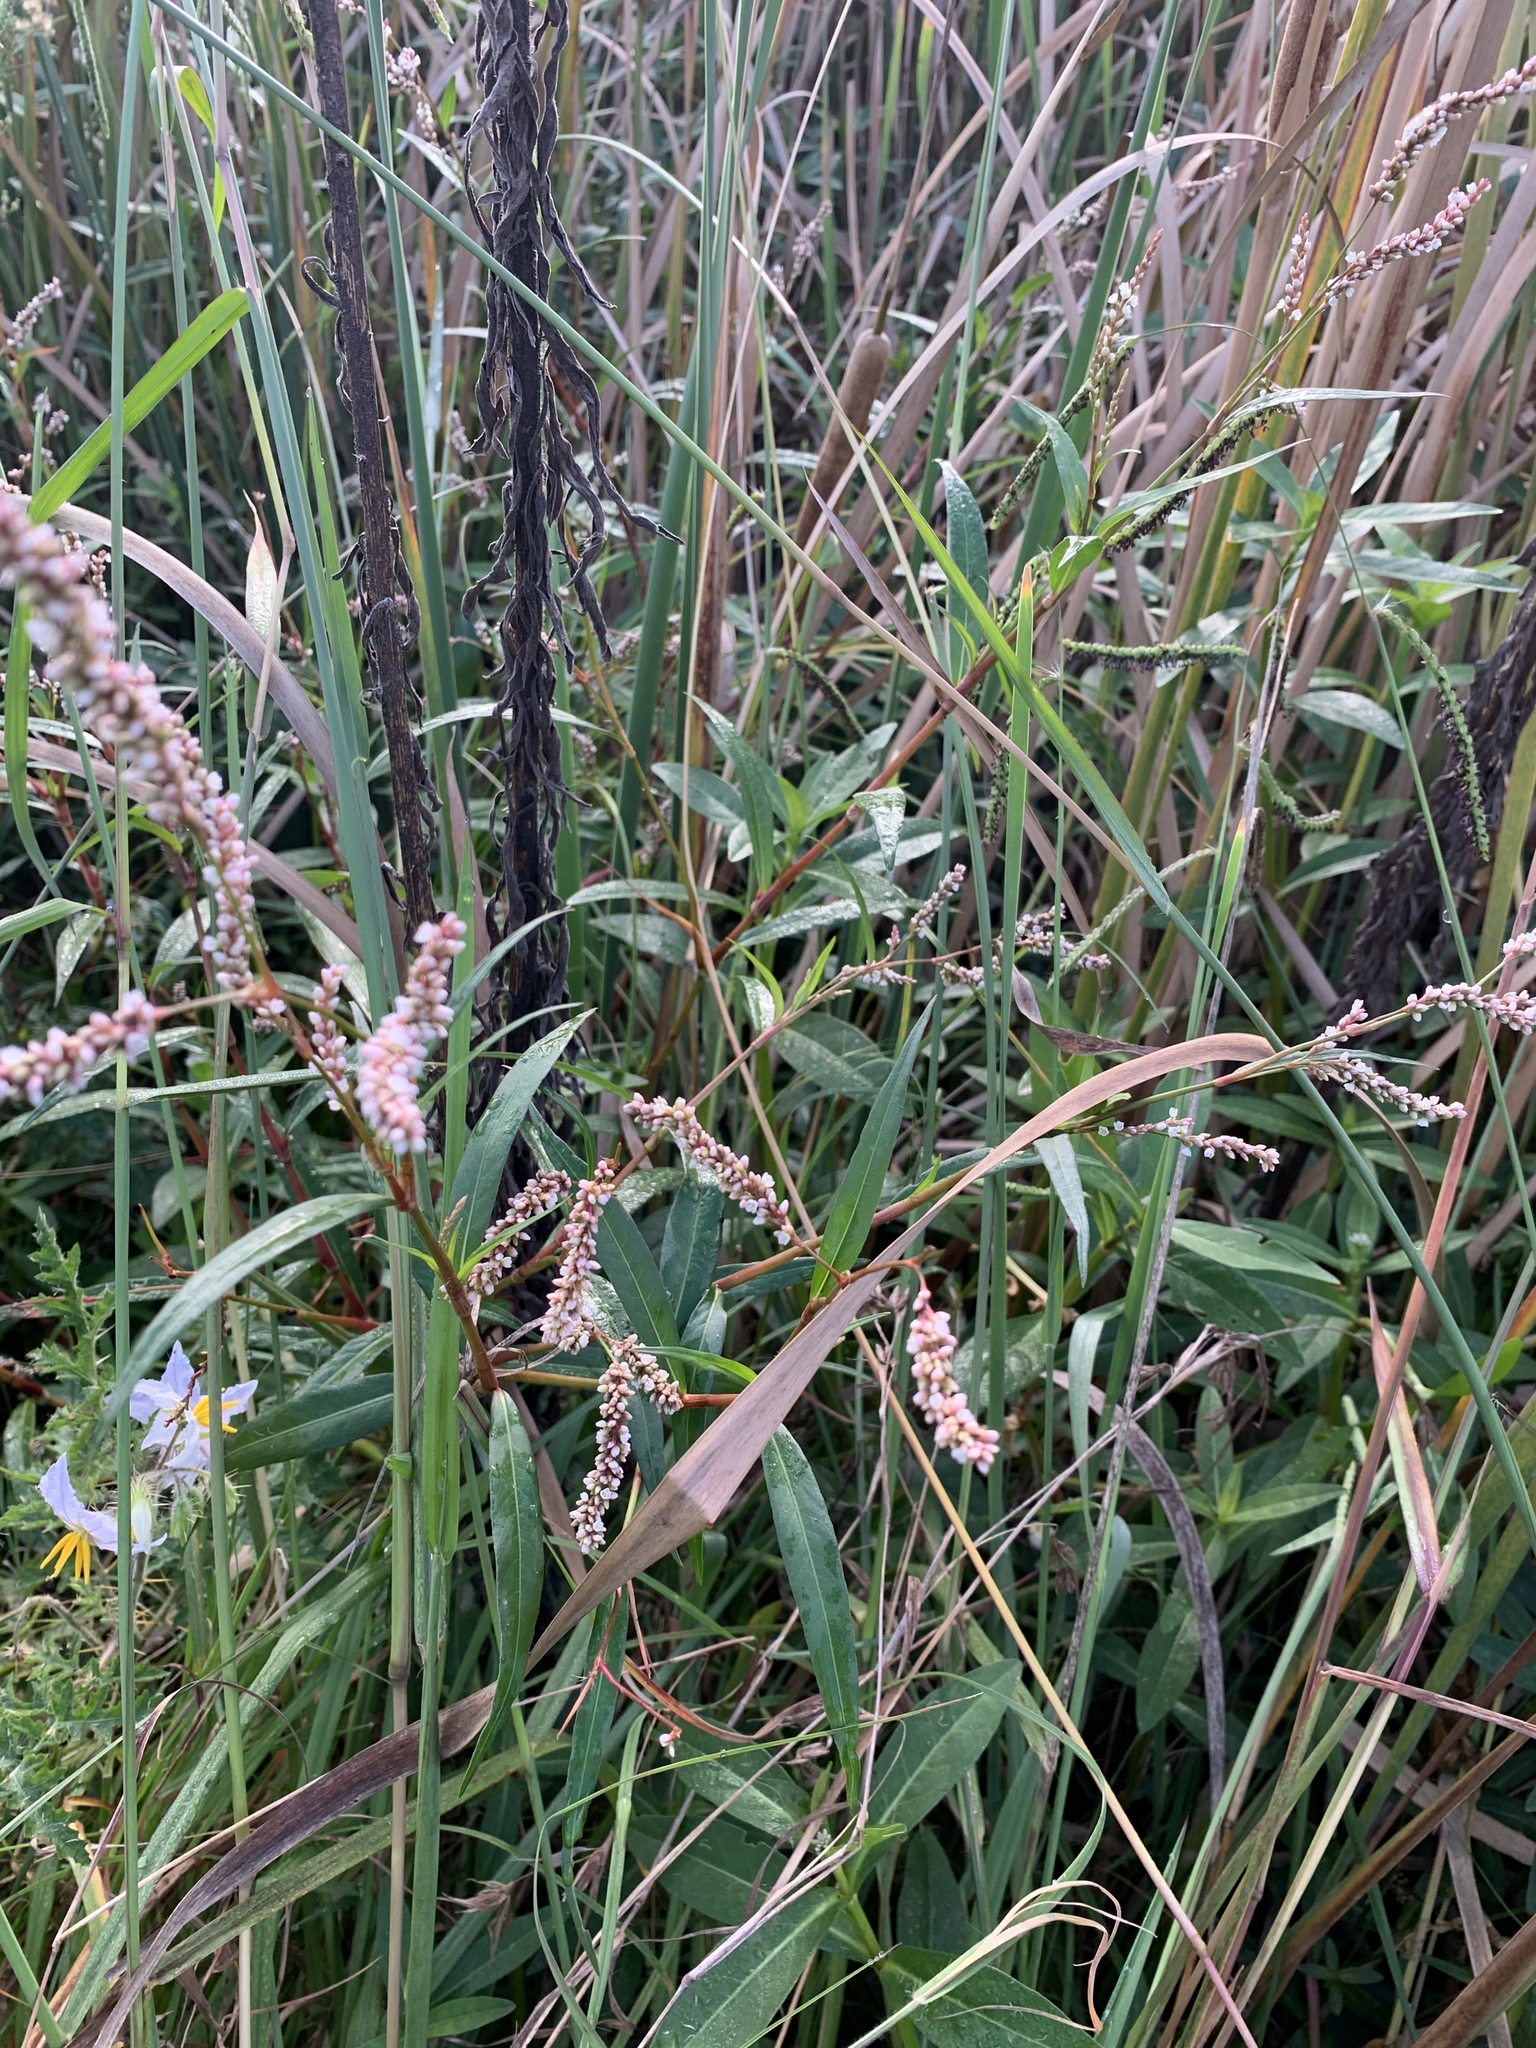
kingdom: Plantae
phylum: Tracheophyta
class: Magnoliopsida
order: Caryophyllales
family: Polygonaceae
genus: Persicaria
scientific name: Persicaria decipiens
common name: Willow-weed
